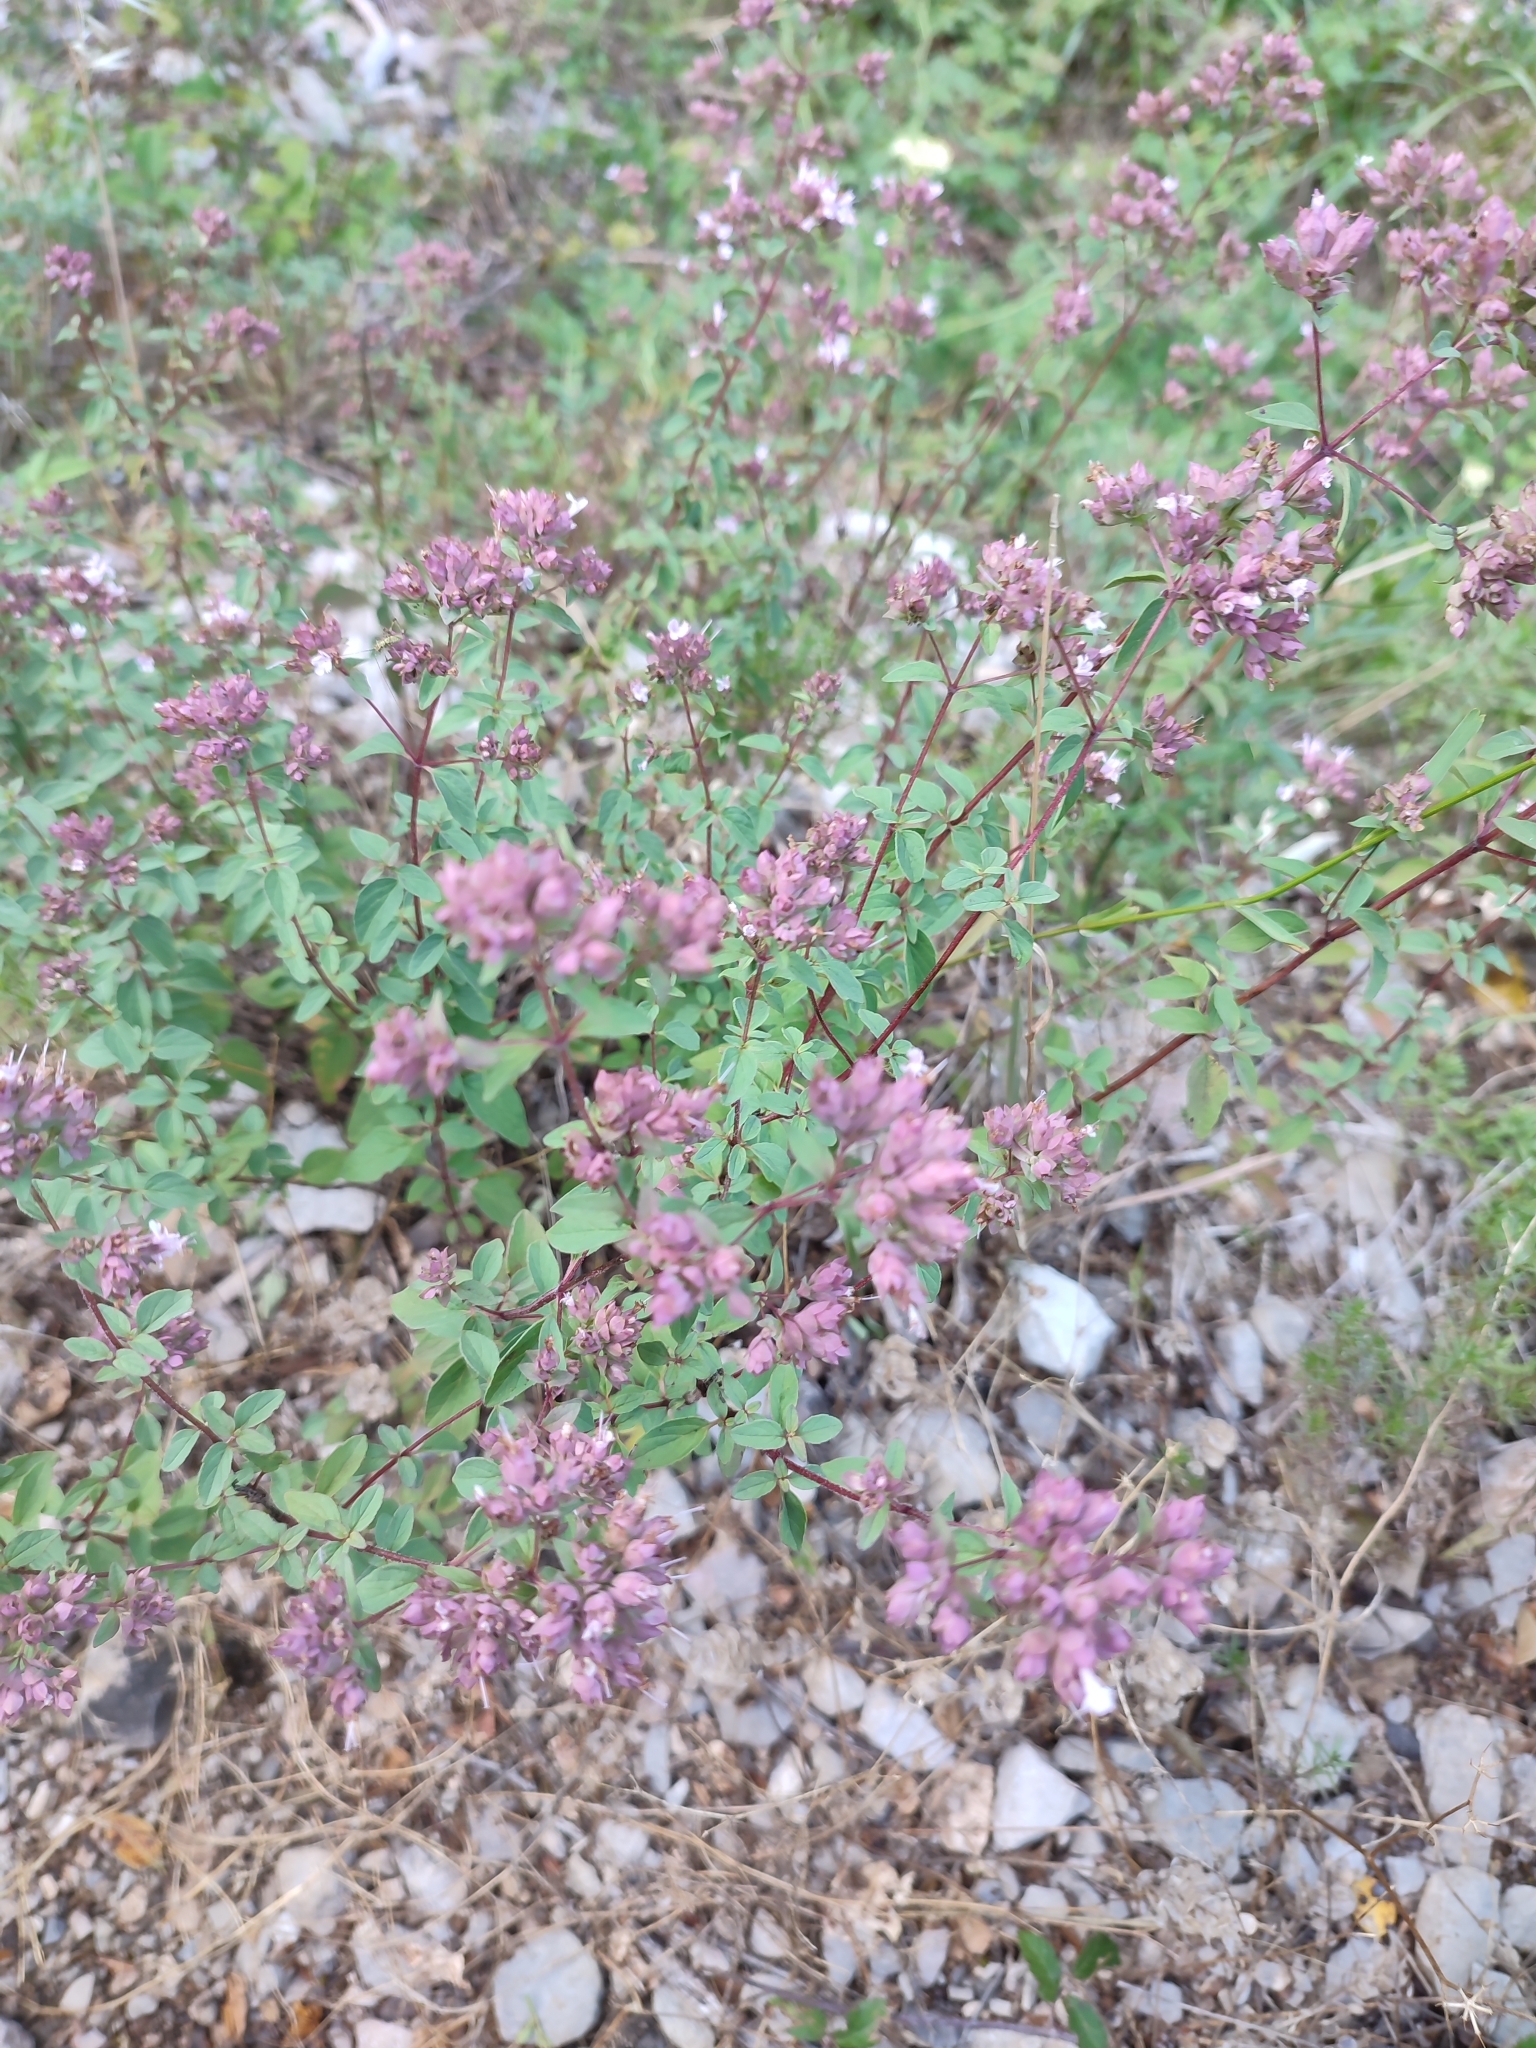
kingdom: Plantae
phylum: Tracheophyta
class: Magnoliopsida
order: Lamiales
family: Lamiaceae
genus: Origanum
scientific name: Origanum vulgare
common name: Wild marjoram
